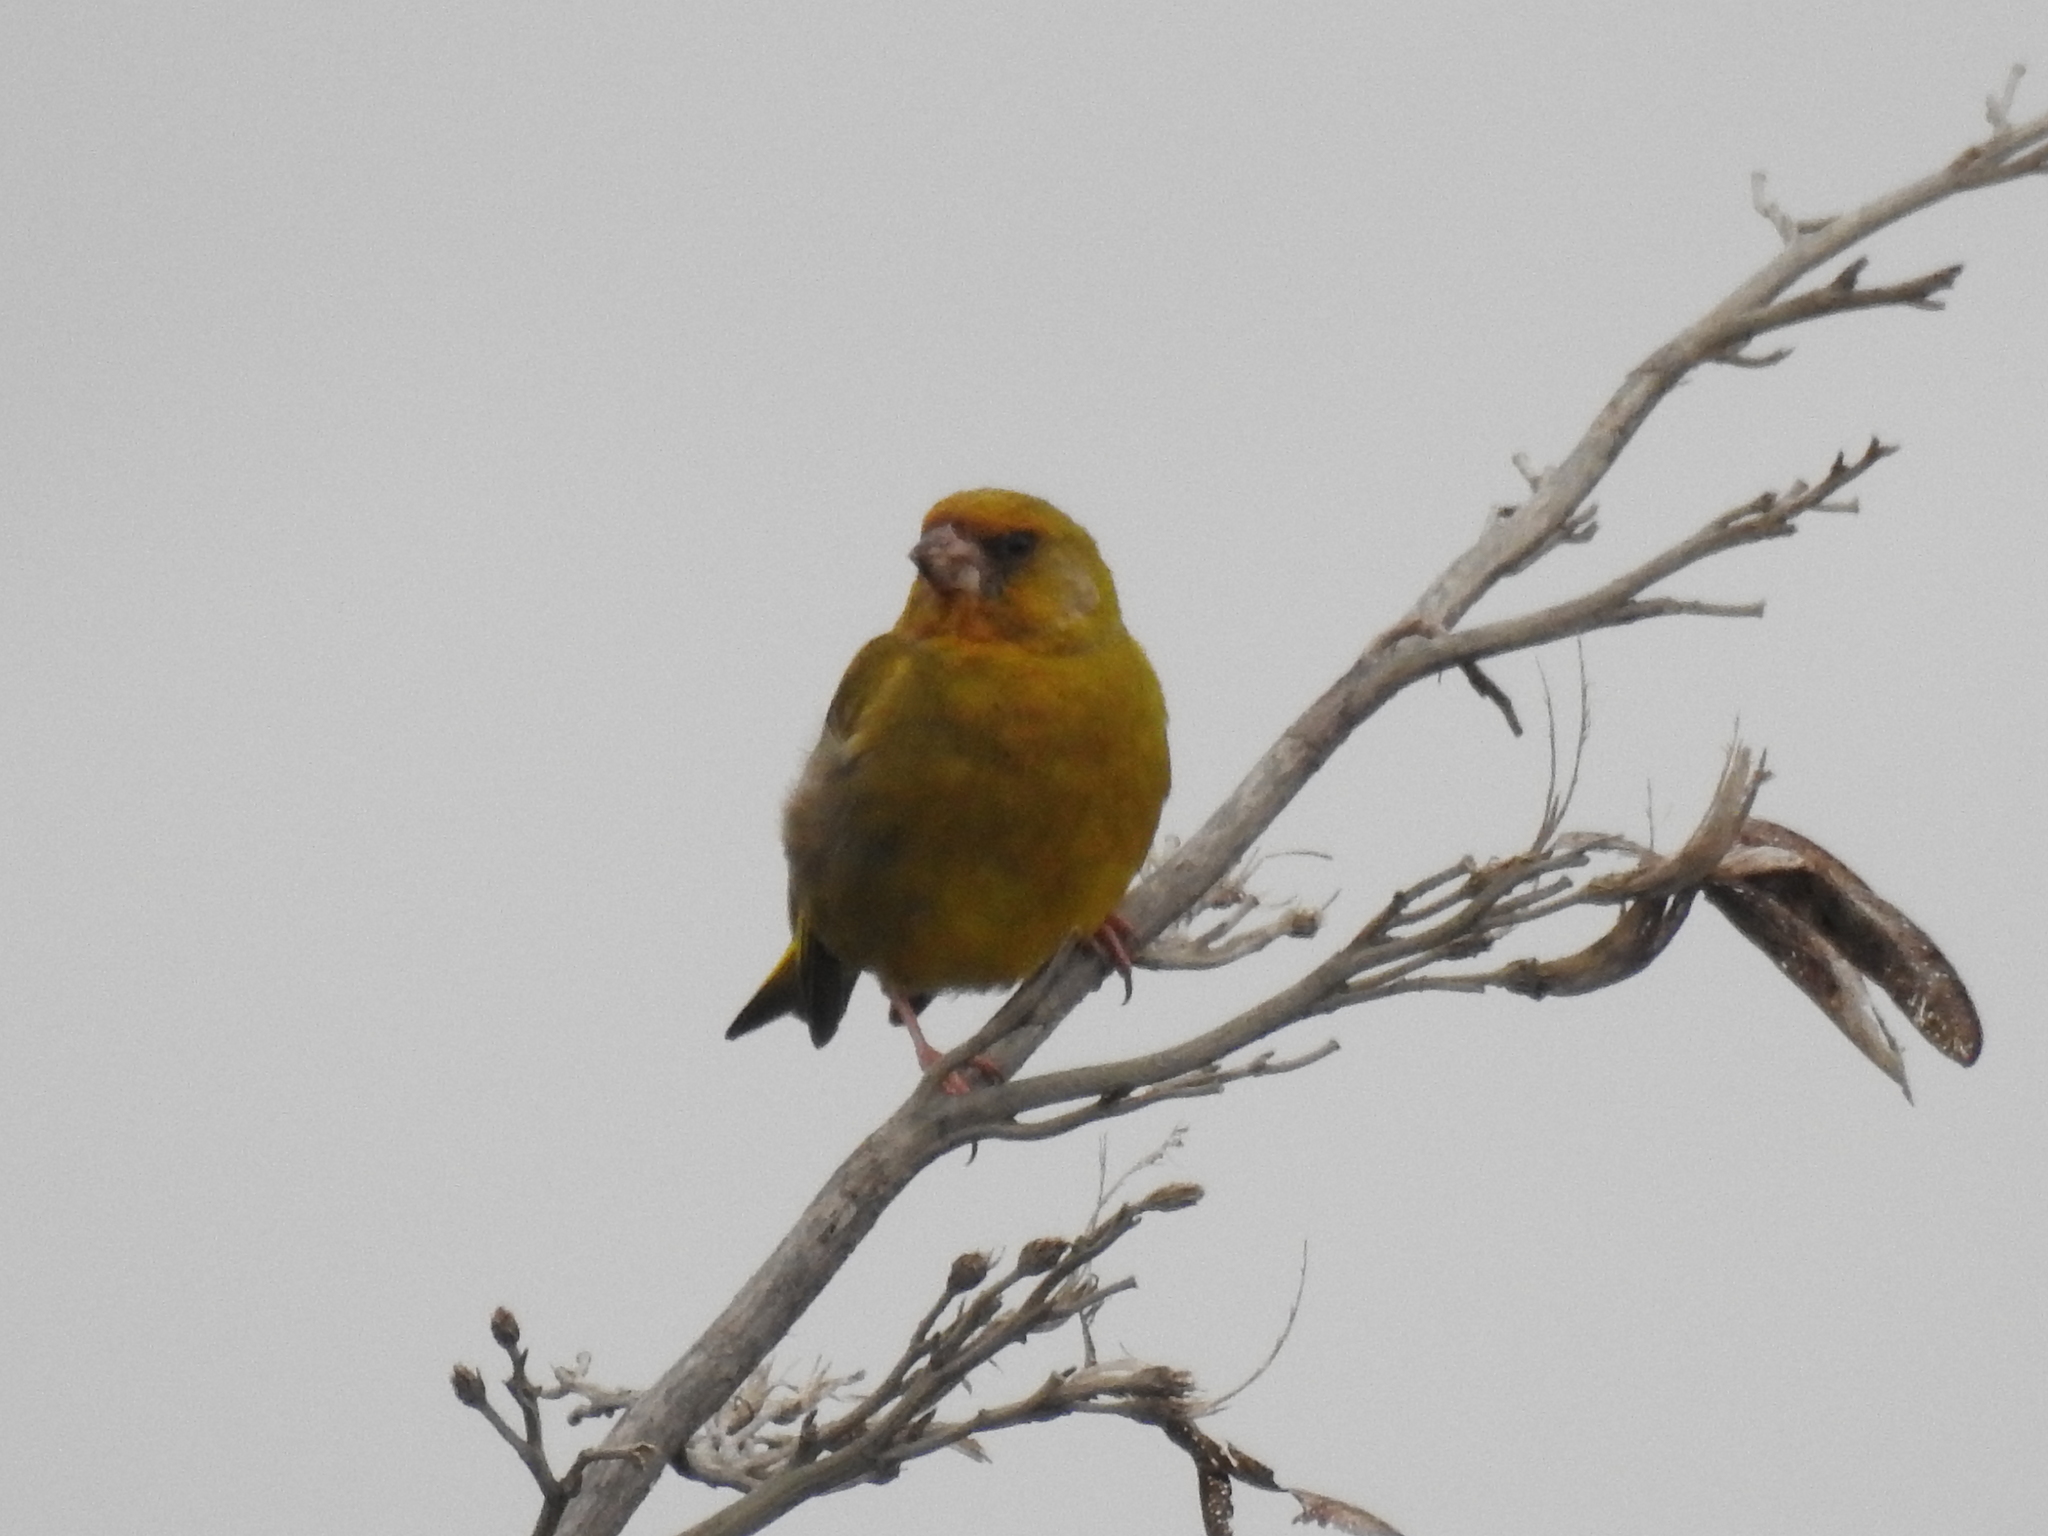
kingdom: Plantae
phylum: Tracheophyta
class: Liliopsida
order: Poales
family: Poaceae
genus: Chloris
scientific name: Chloris chloris
